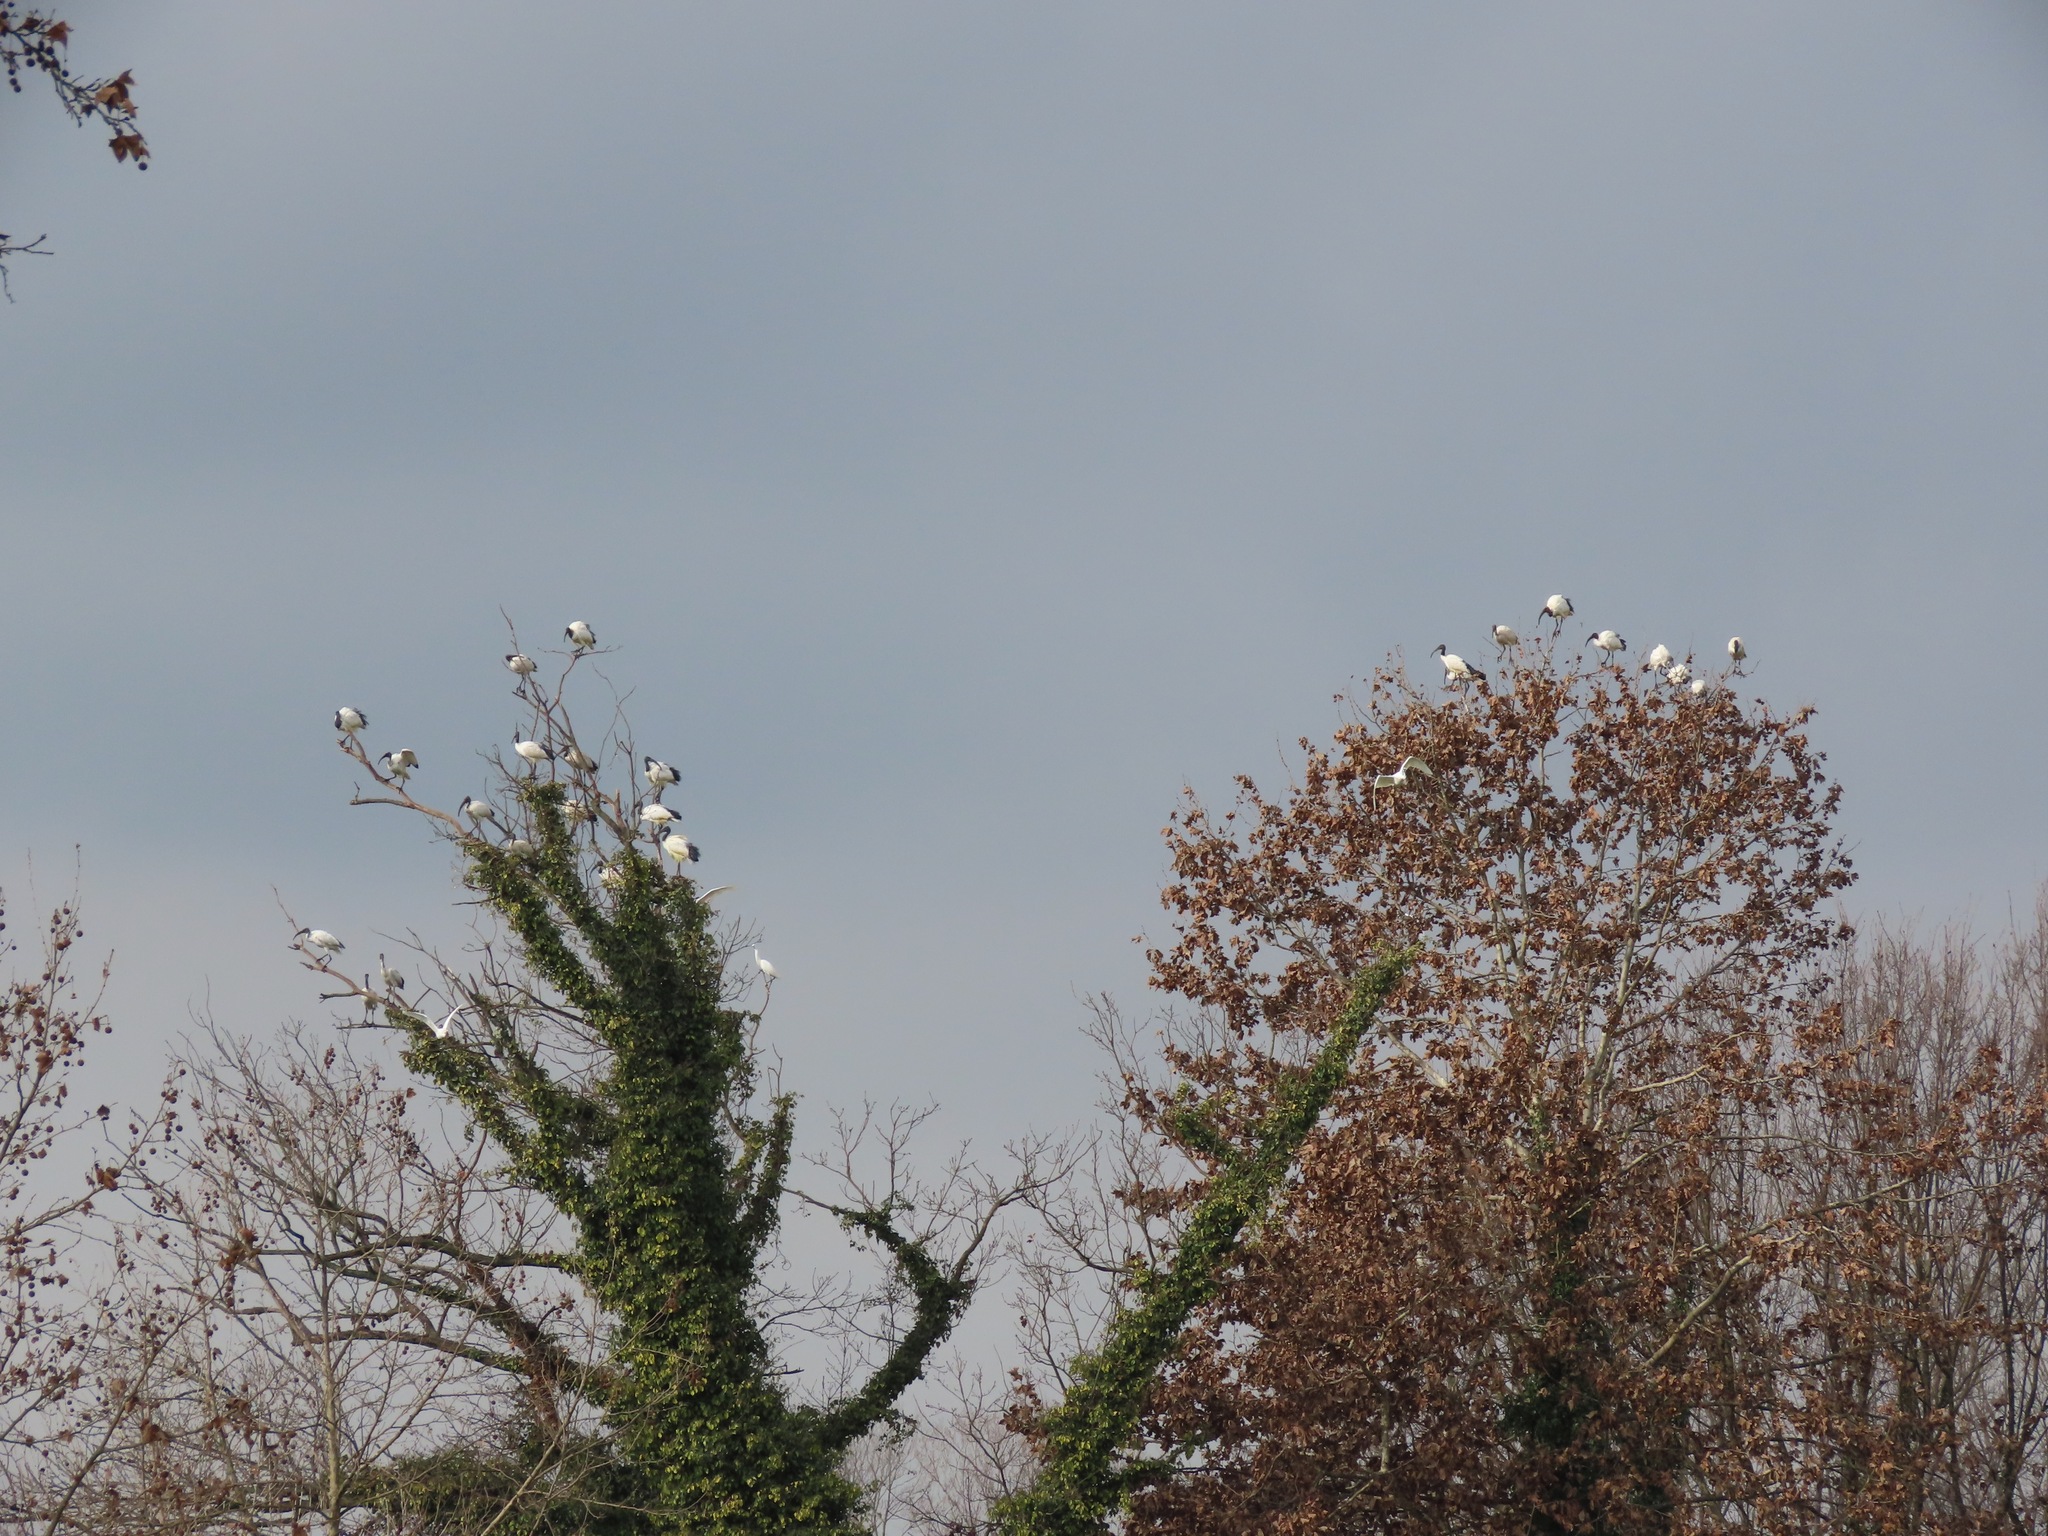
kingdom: Animalia
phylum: Chordata
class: Aves
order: Pelecaniformes
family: Threskiornithidae
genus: Threskiornis
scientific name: Threskiornis aethiopicus
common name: Sacred ibis
